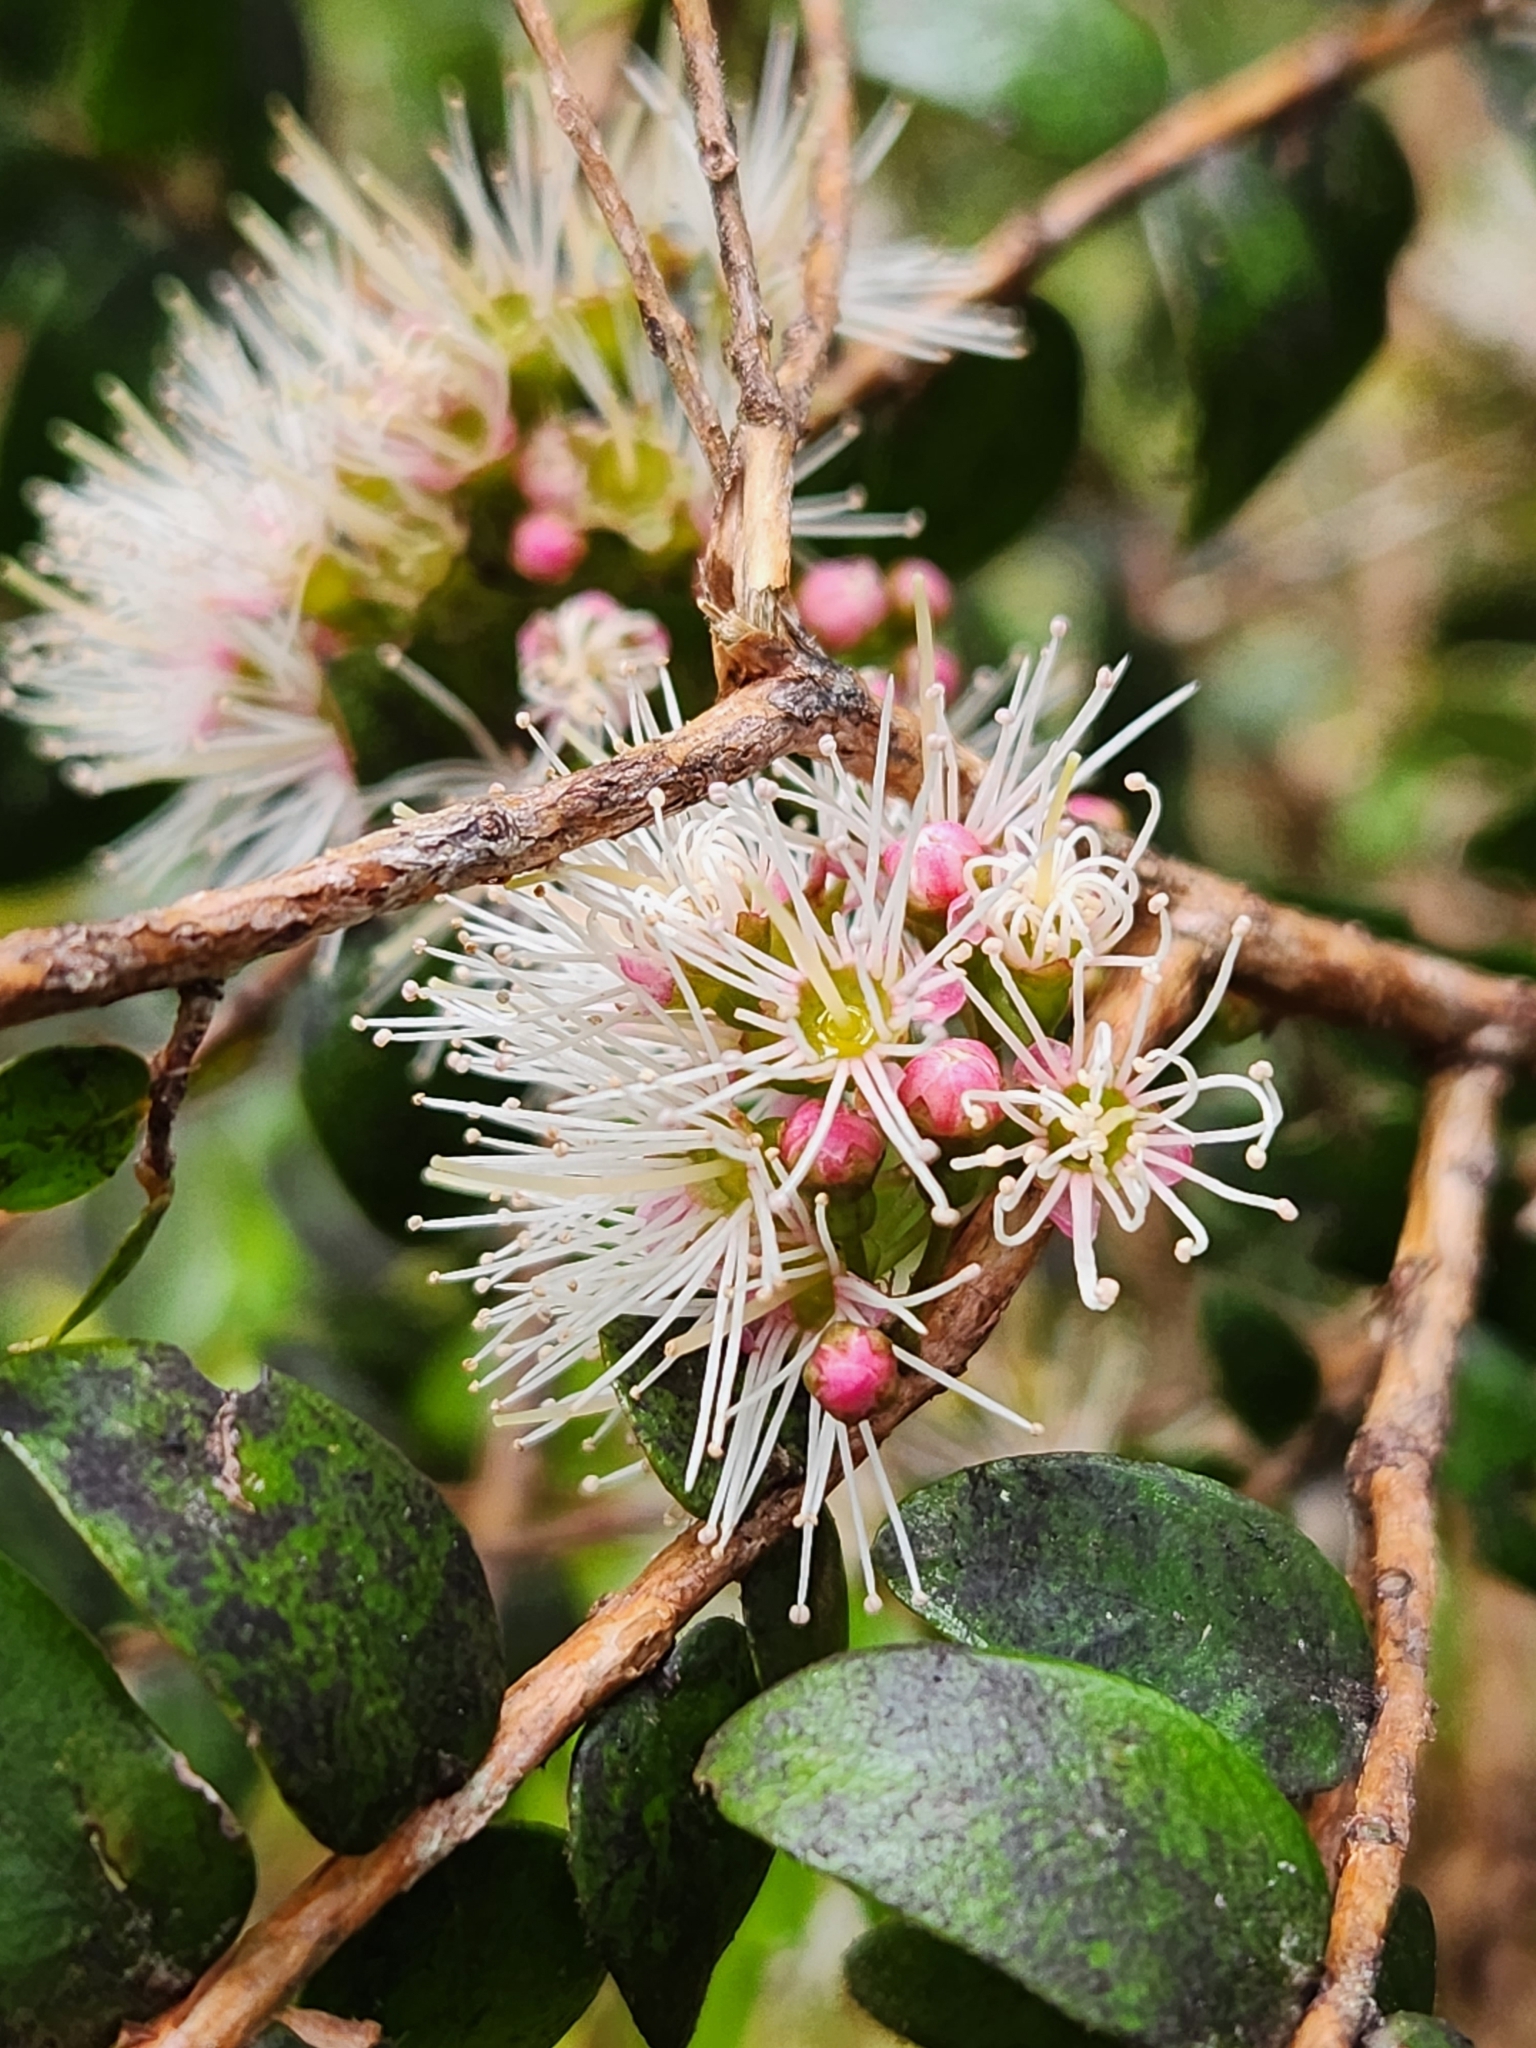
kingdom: Plantae
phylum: Tracheophyta
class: Magnoliopsida
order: Myrtales
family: Myrtaceae
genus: Metrosideros
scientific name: Metrosideros diffusa
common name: Small ratavine
